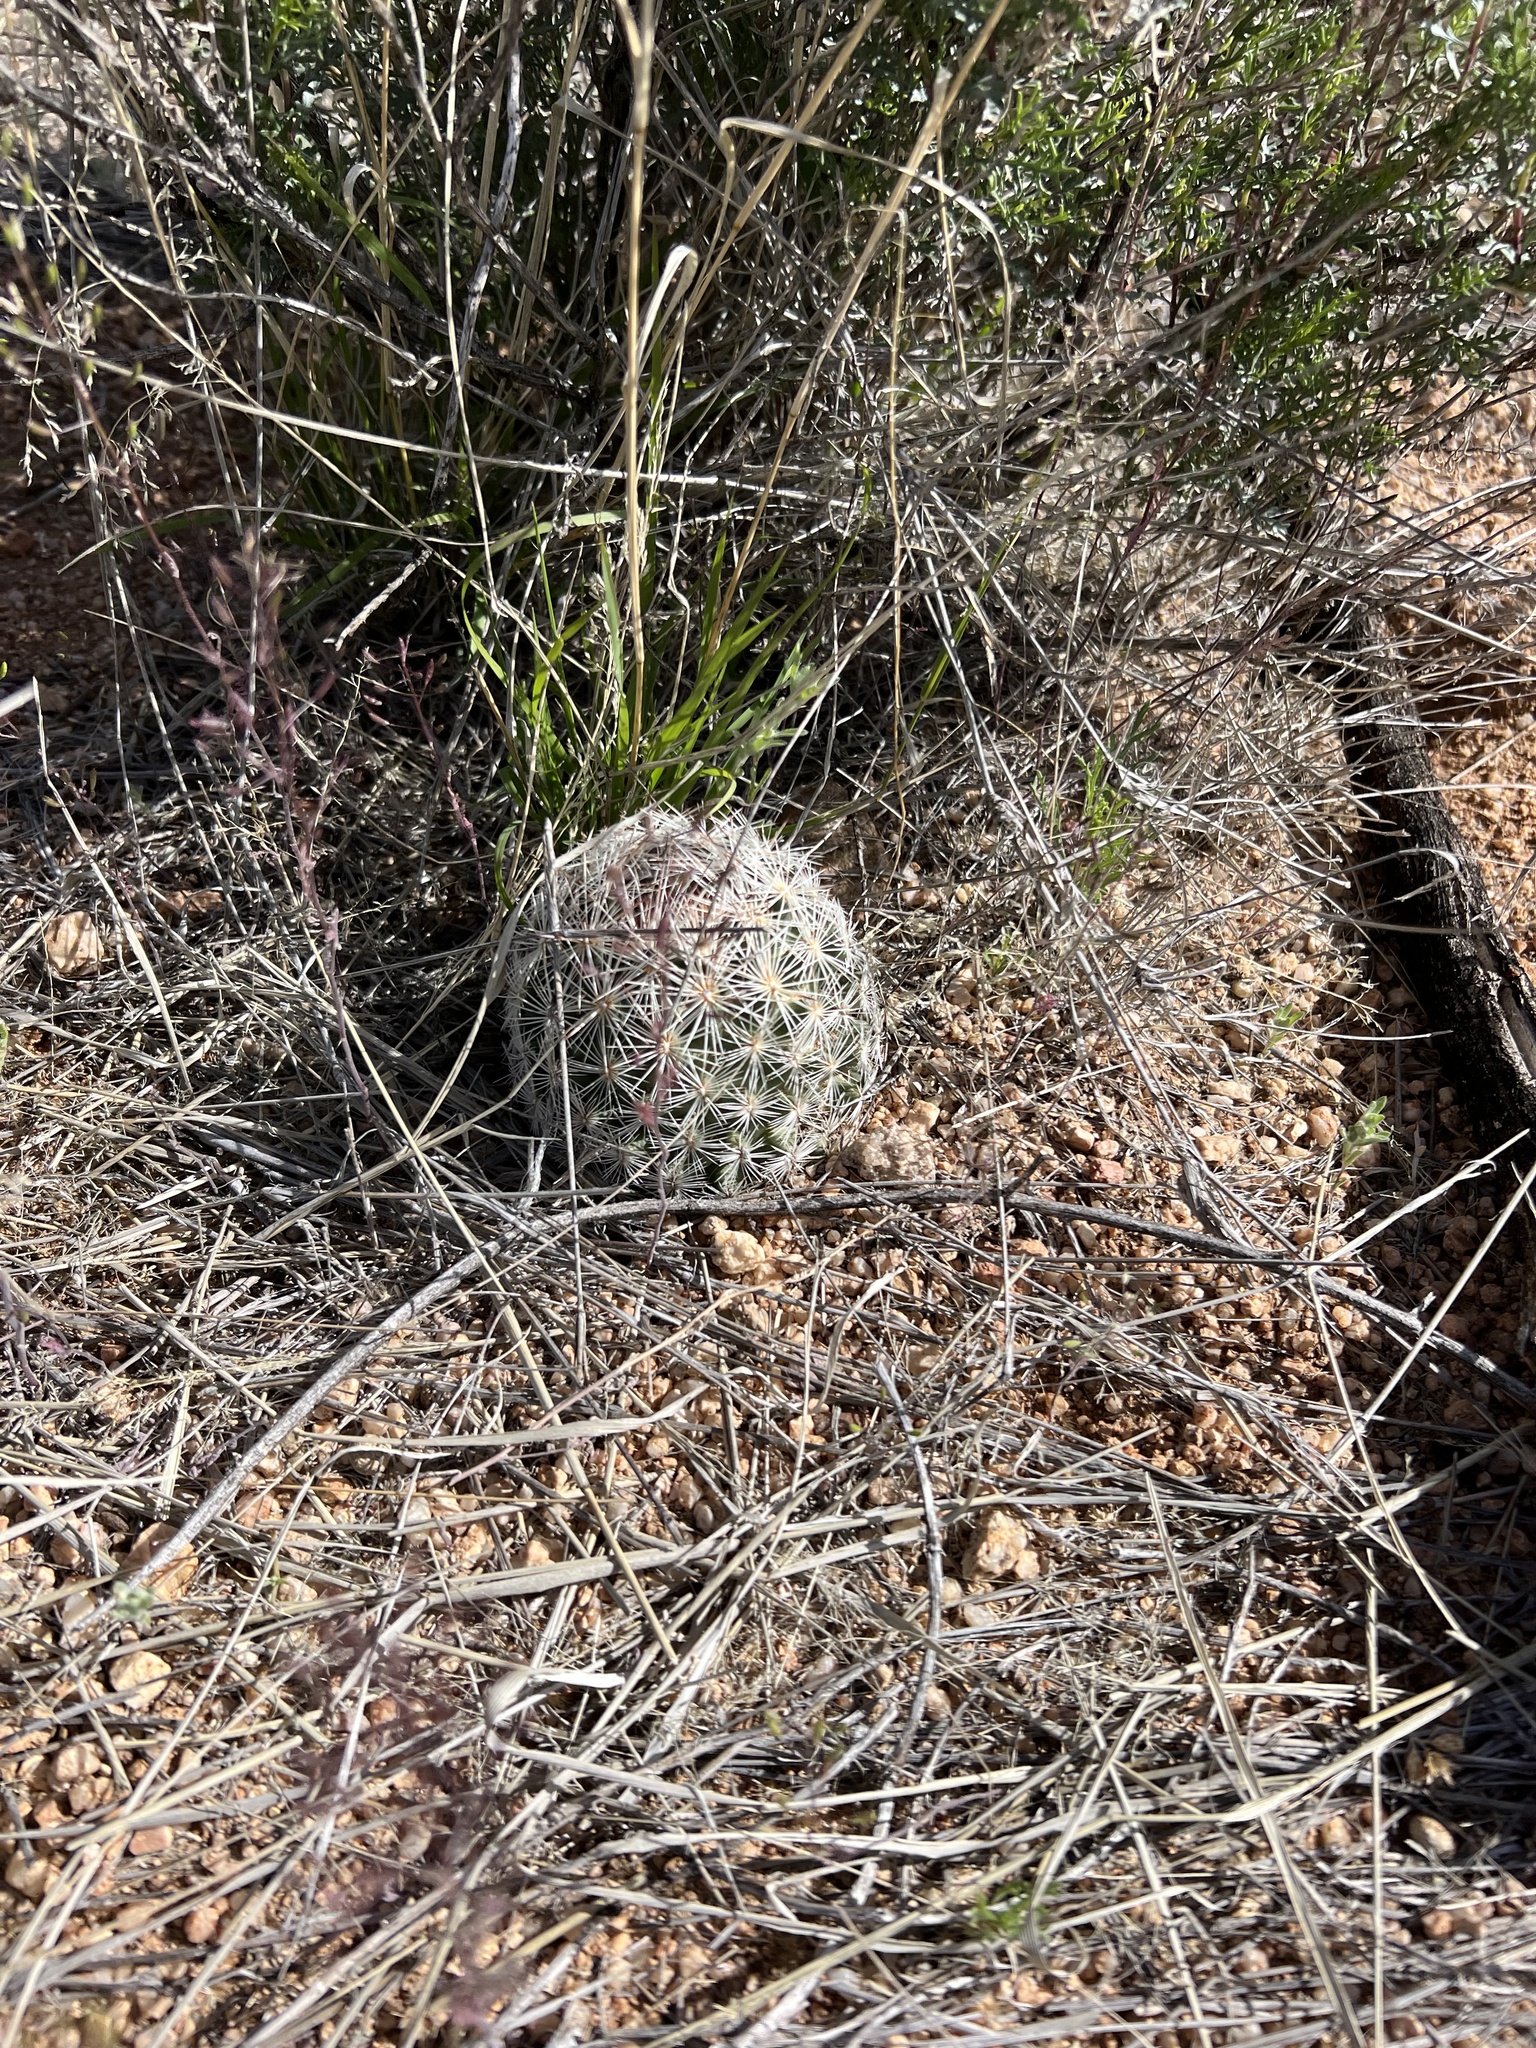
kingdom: Plantae
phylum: Tracheophyta
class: Magnoliopsida
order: Caryophyllales
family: Cactaceae
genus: Pelecyphora
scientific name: Pelecyphora vivipara
